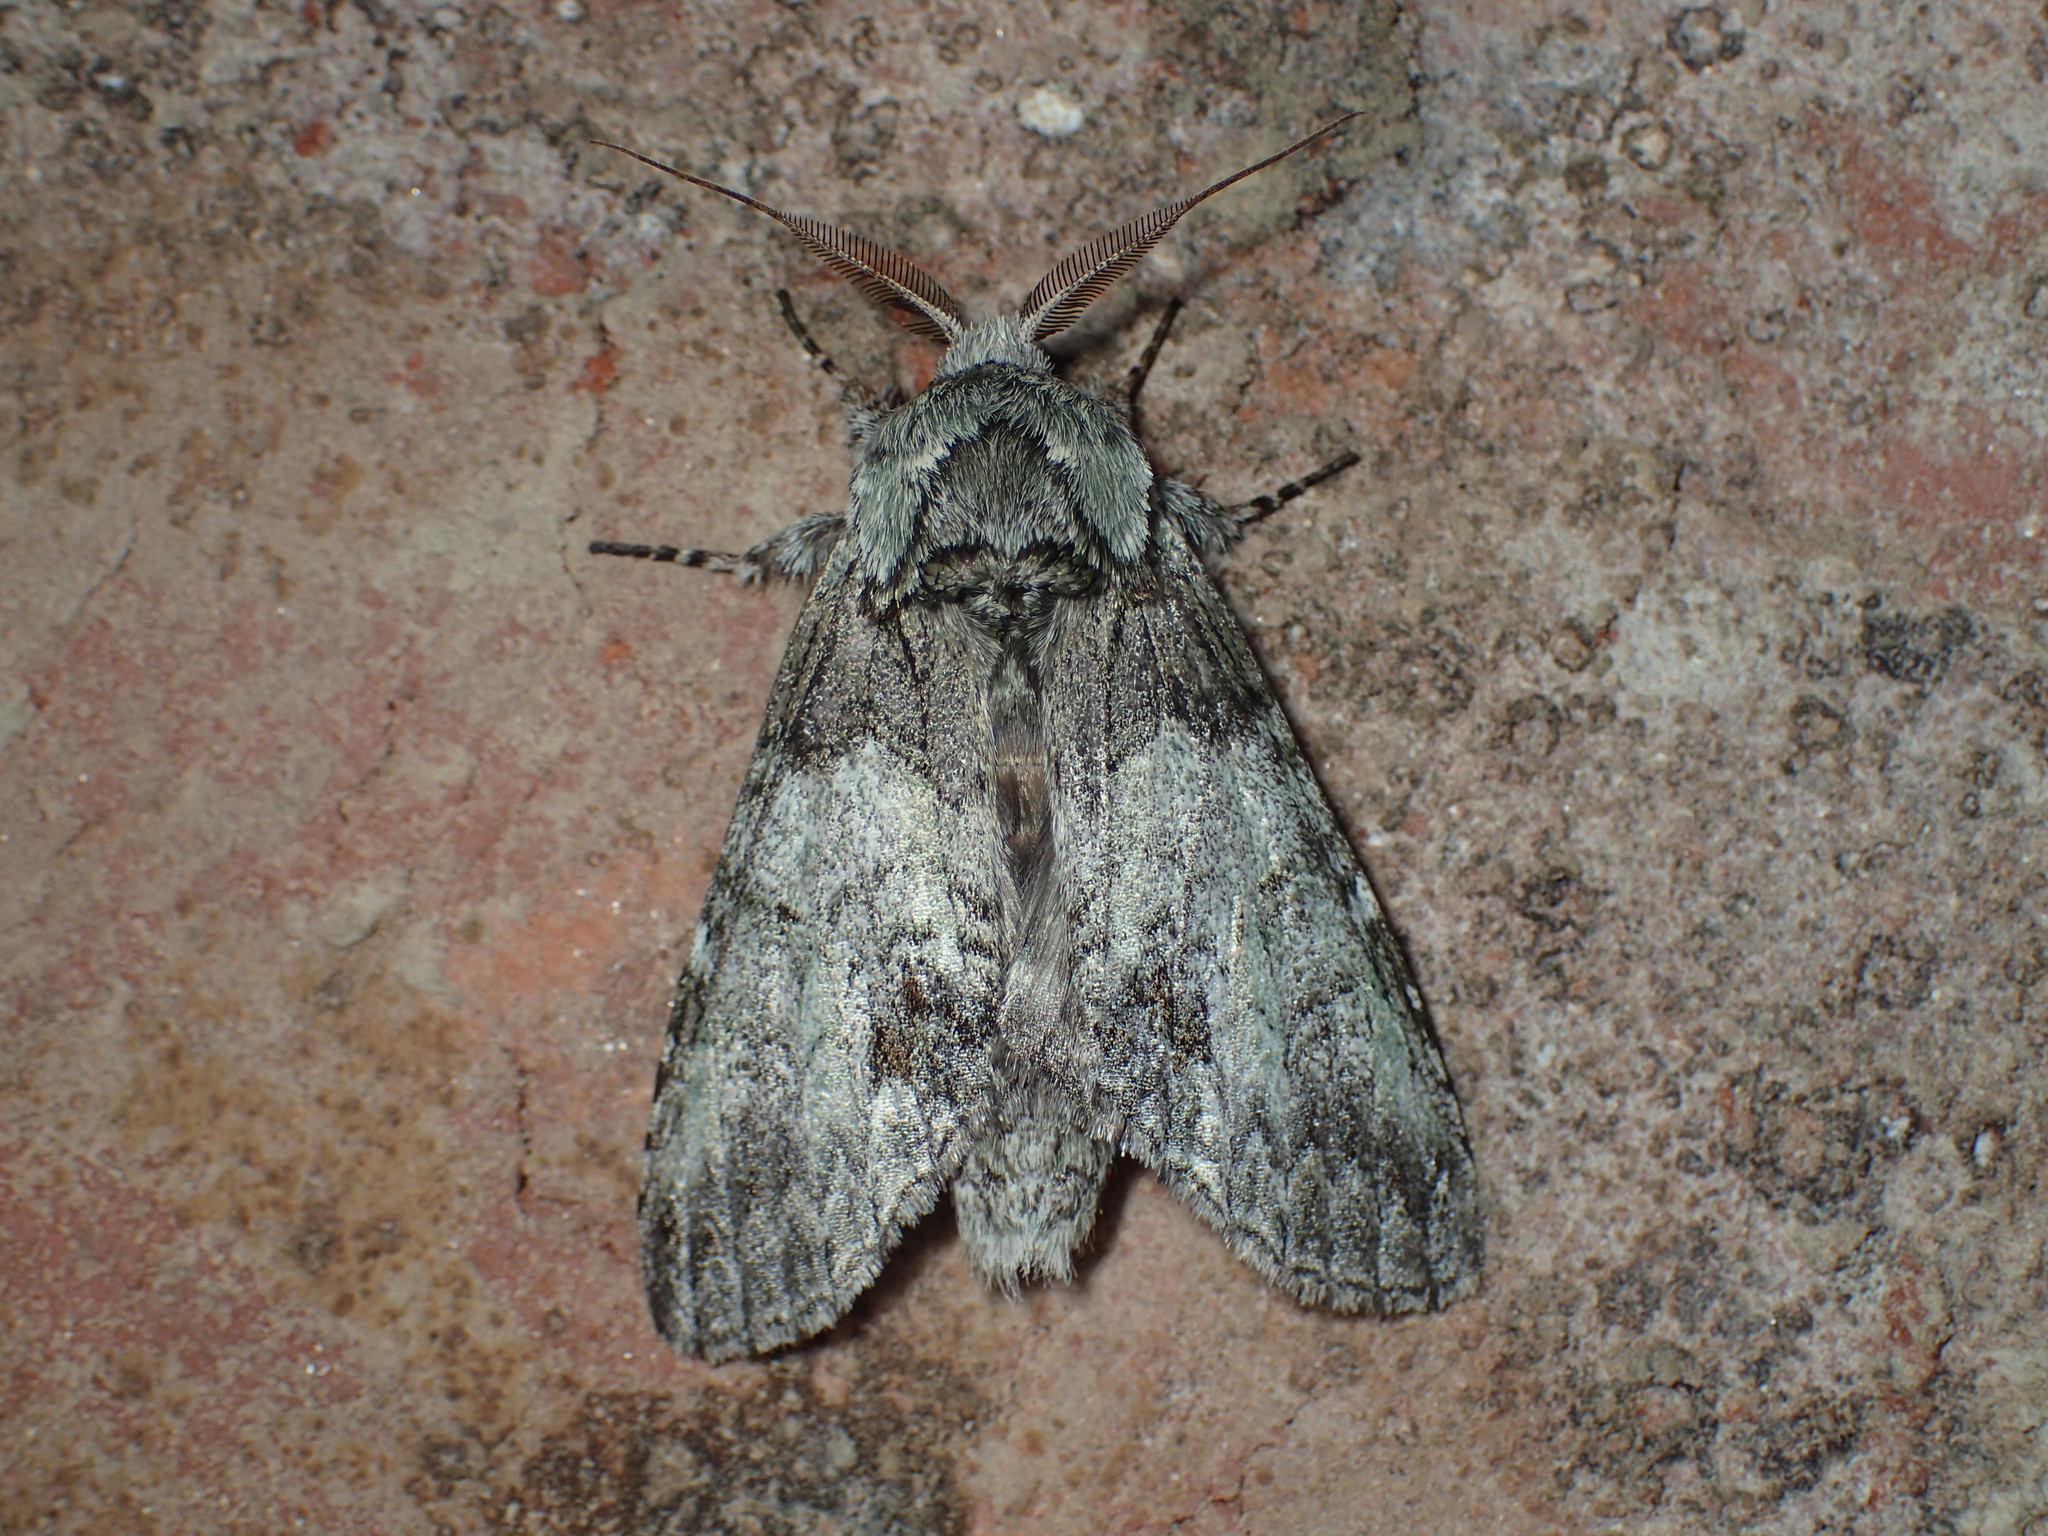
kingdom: Animalia
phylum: Arthropoda
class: Insecta
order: Lepidoptera
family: Notodontidae
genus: Macrurocampa
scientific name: Macrurocampa marthesia
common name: Mottled prominent
